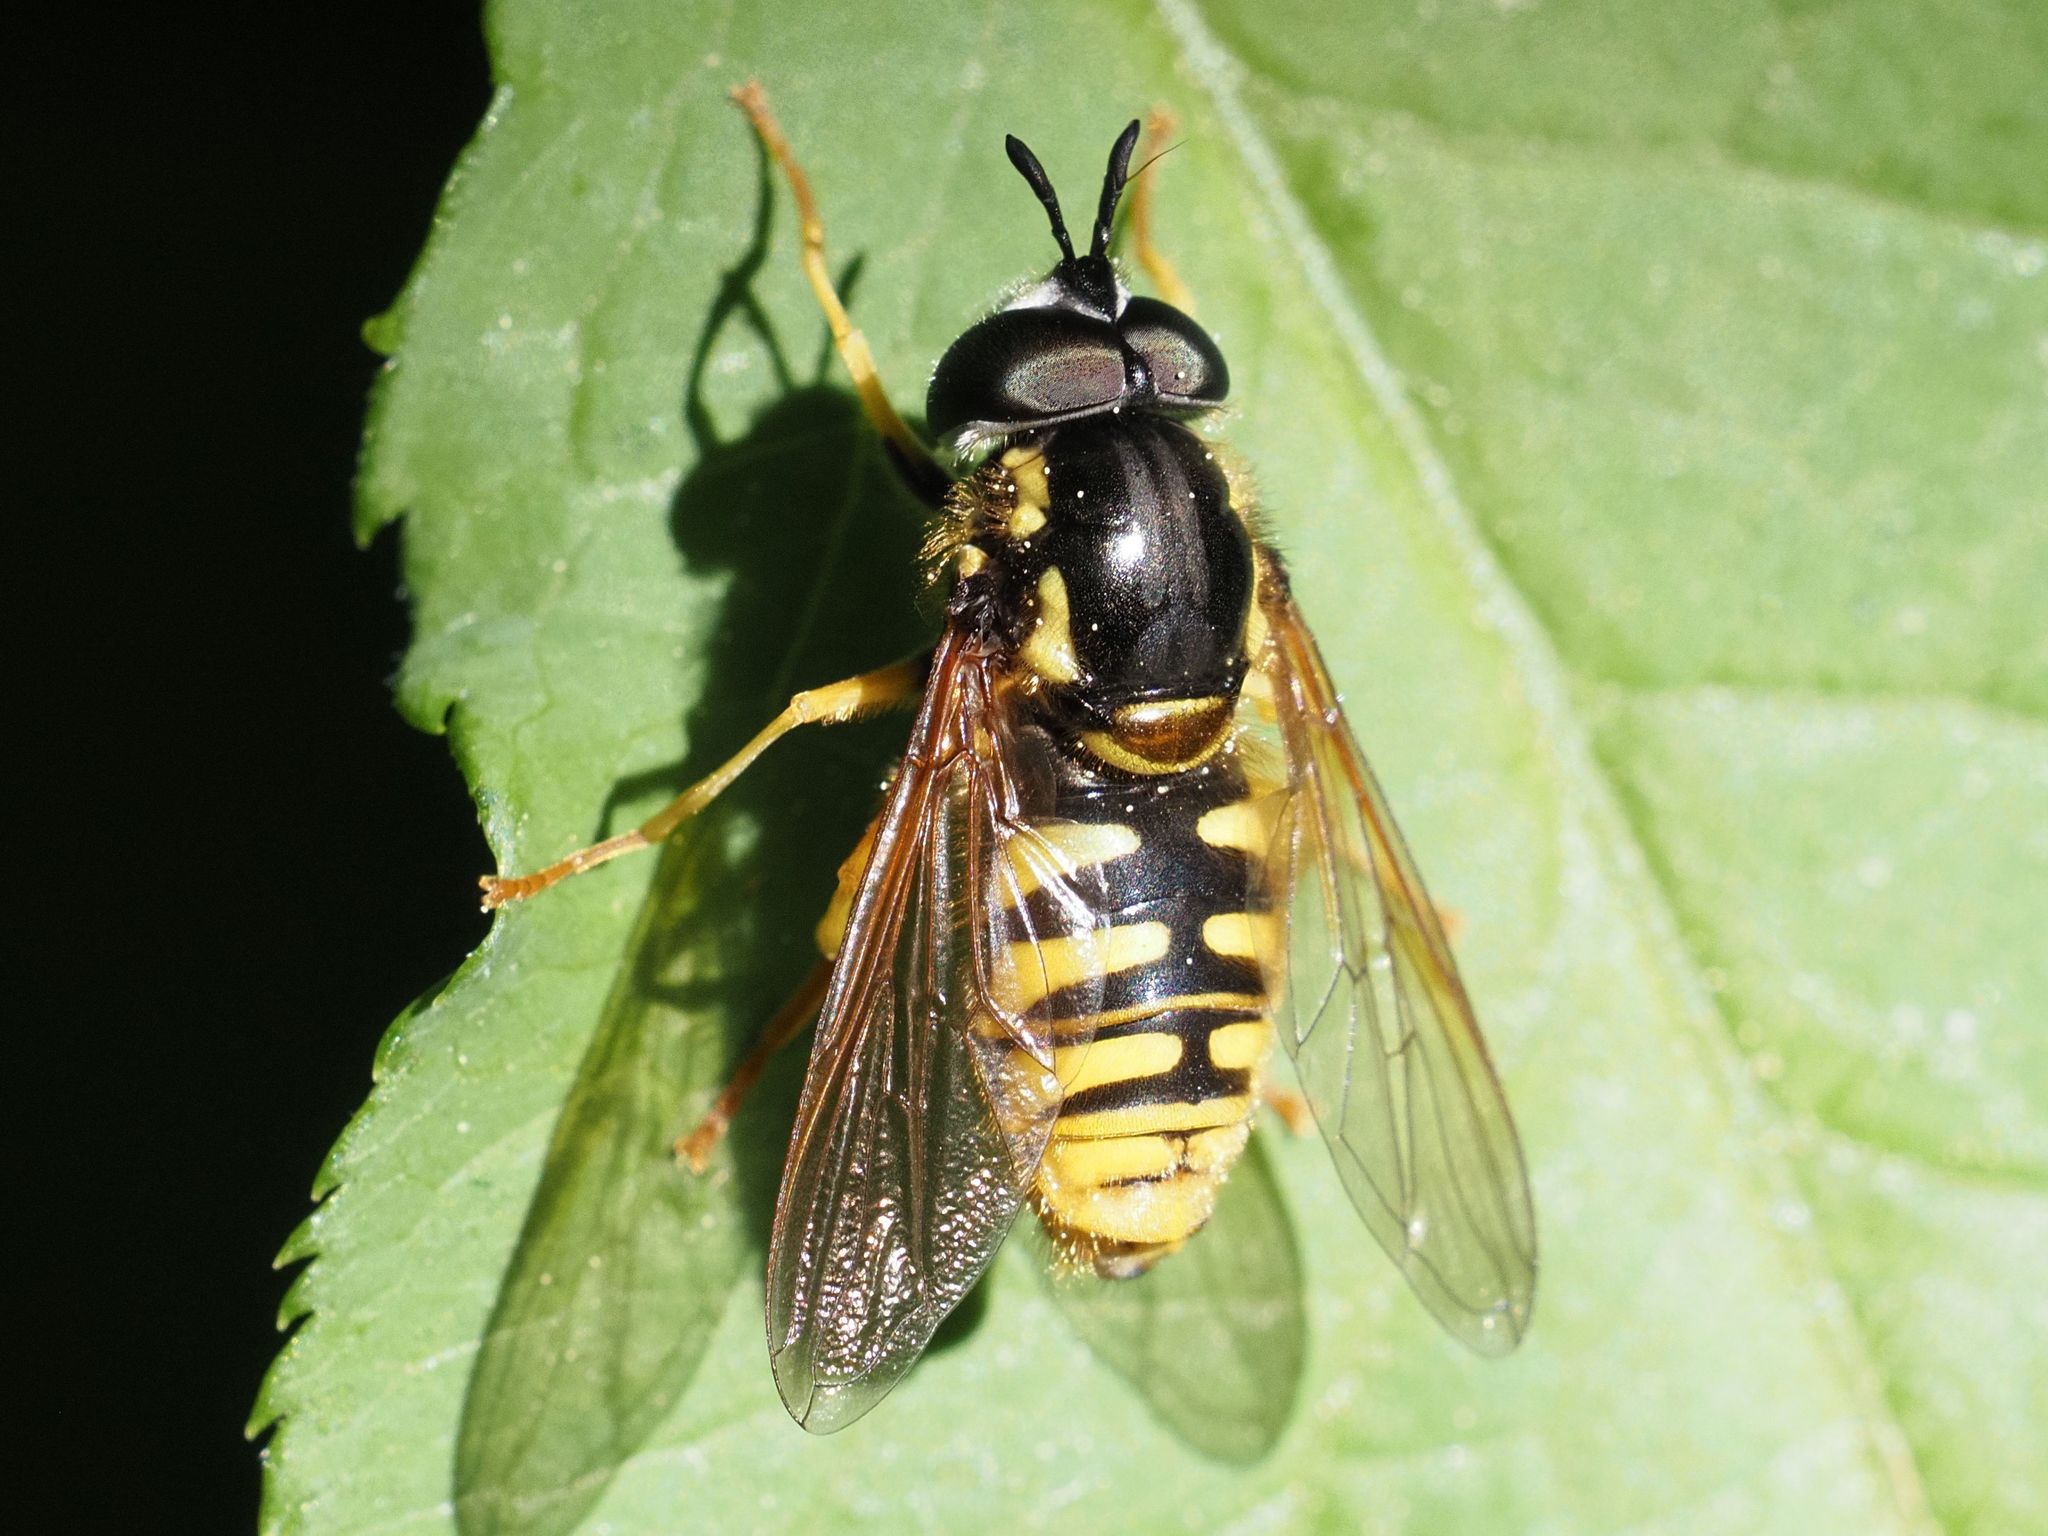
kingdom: Animalia
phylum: Arthropoda
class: Insecta
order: Diptera
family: Syrphidae
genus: Chrysotoxum
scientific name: Chrysotoxum cautum
